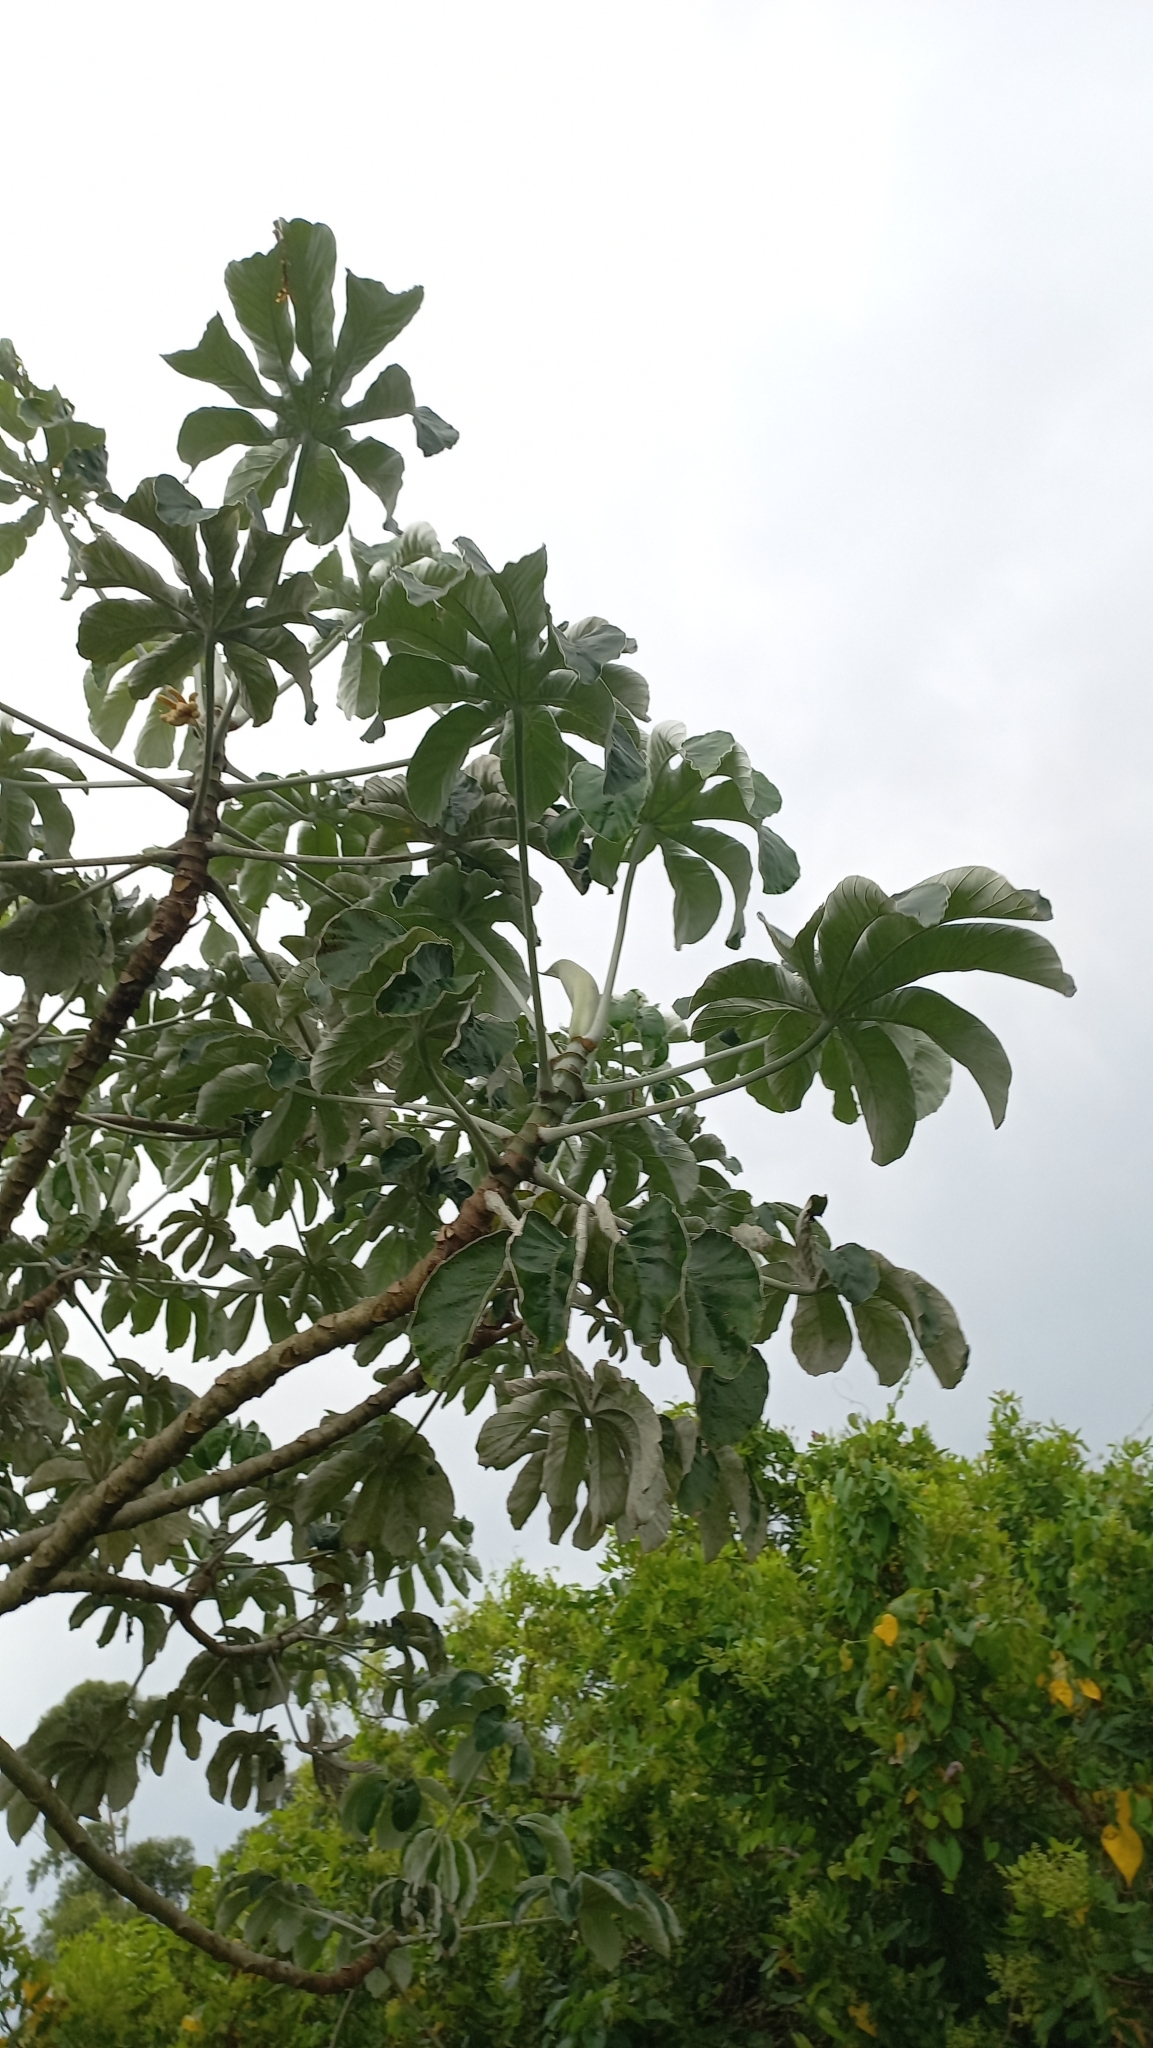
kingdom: Plantae
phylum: Tracheophyta
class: Magnoliopsida
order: Rosales
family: Urticaceae
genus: Cecropia
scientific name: Cecropia pachystachya
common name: Ambay pumpwood
